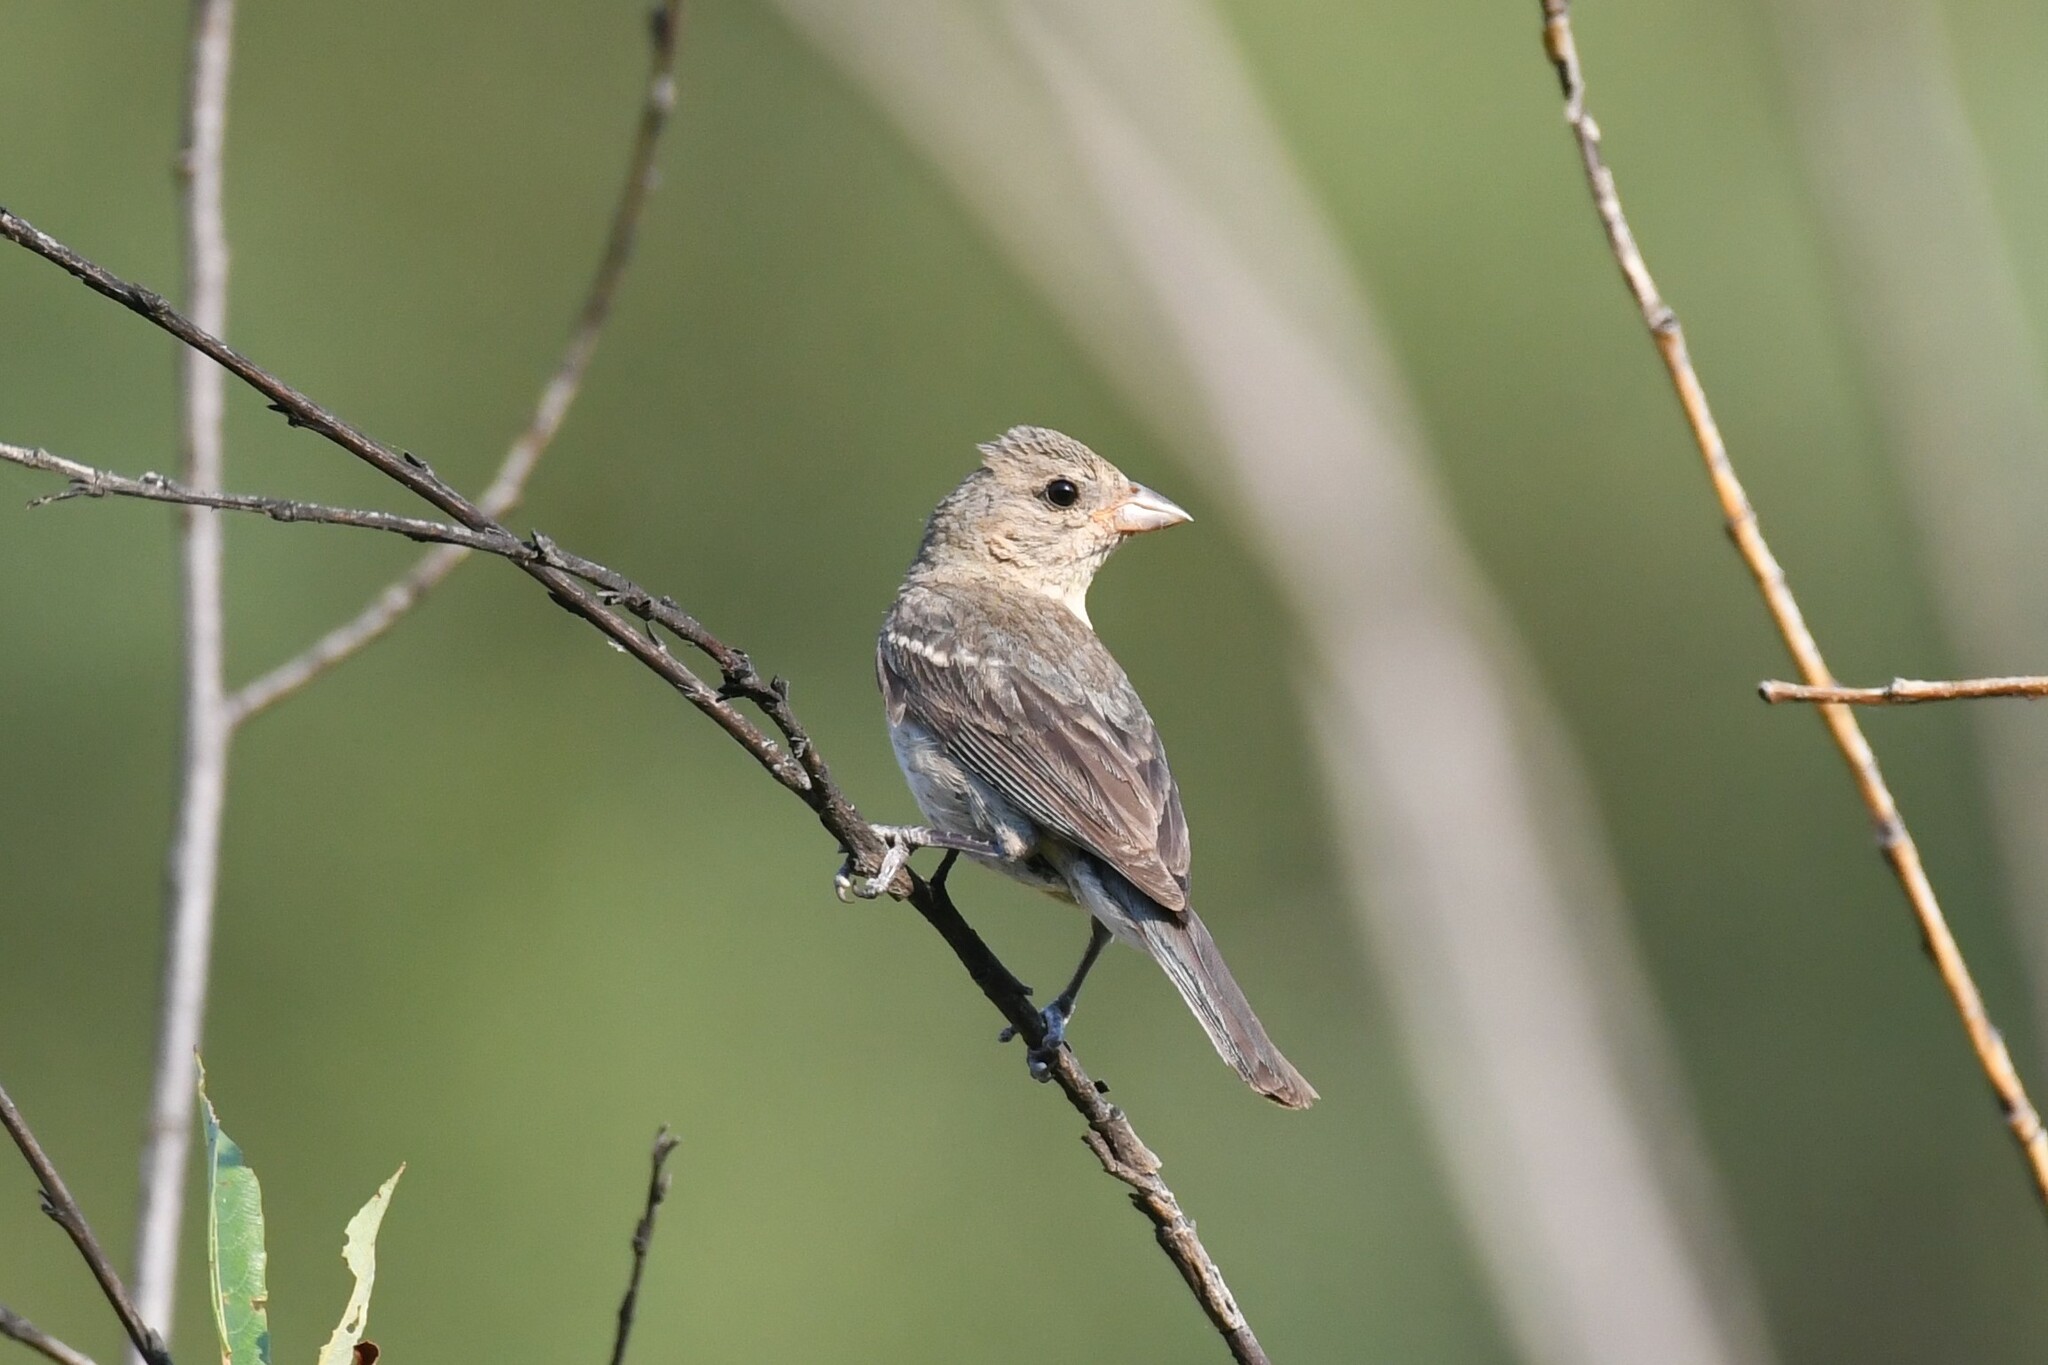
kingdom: Animalia
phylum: Chordata
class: Aves
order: Passeriformes
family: Cardinalidae
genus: Passerina
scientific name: Passerina amoena
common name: Lazuli bunting
